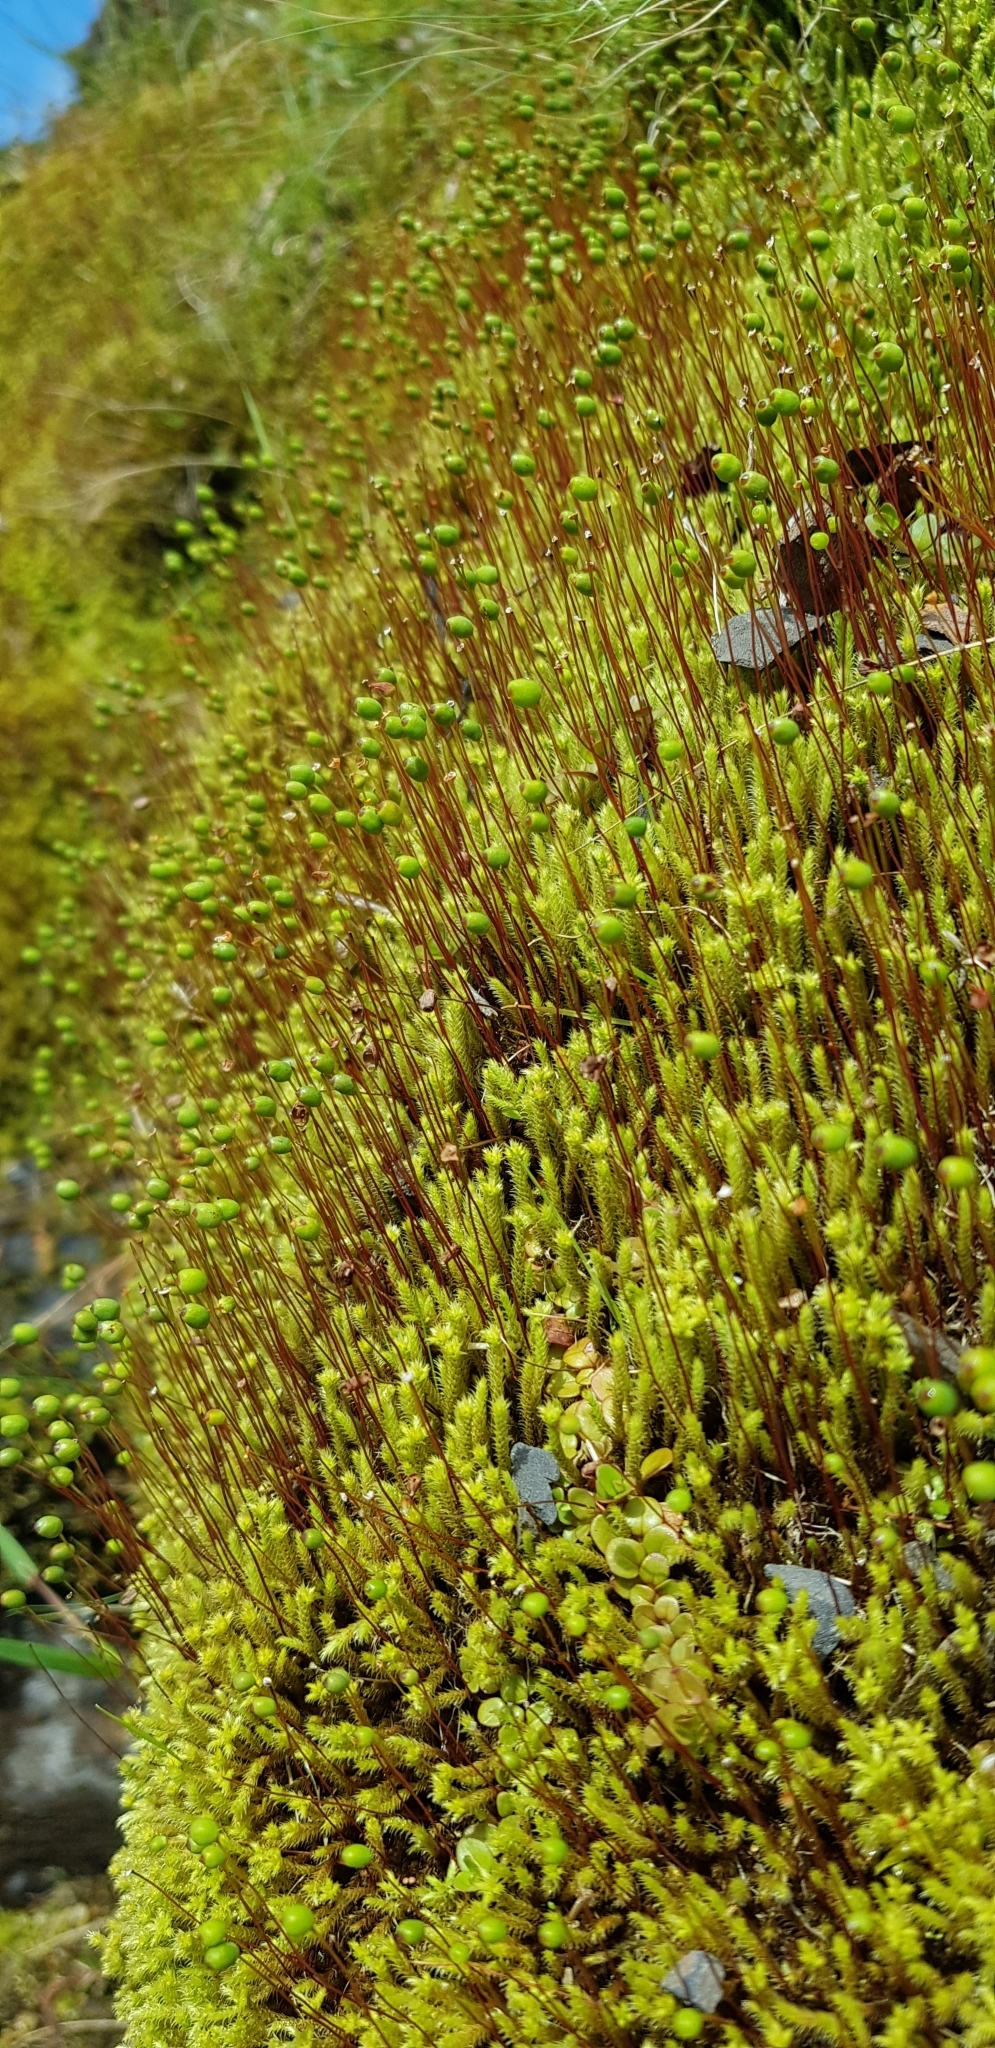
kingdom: Plantae
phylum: Bryophyta
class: Bryopsida
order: Bartramiales
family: Bartramiaceae
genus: Philonotis
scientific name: Philonotis fontana
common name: Fountain apple-moss
